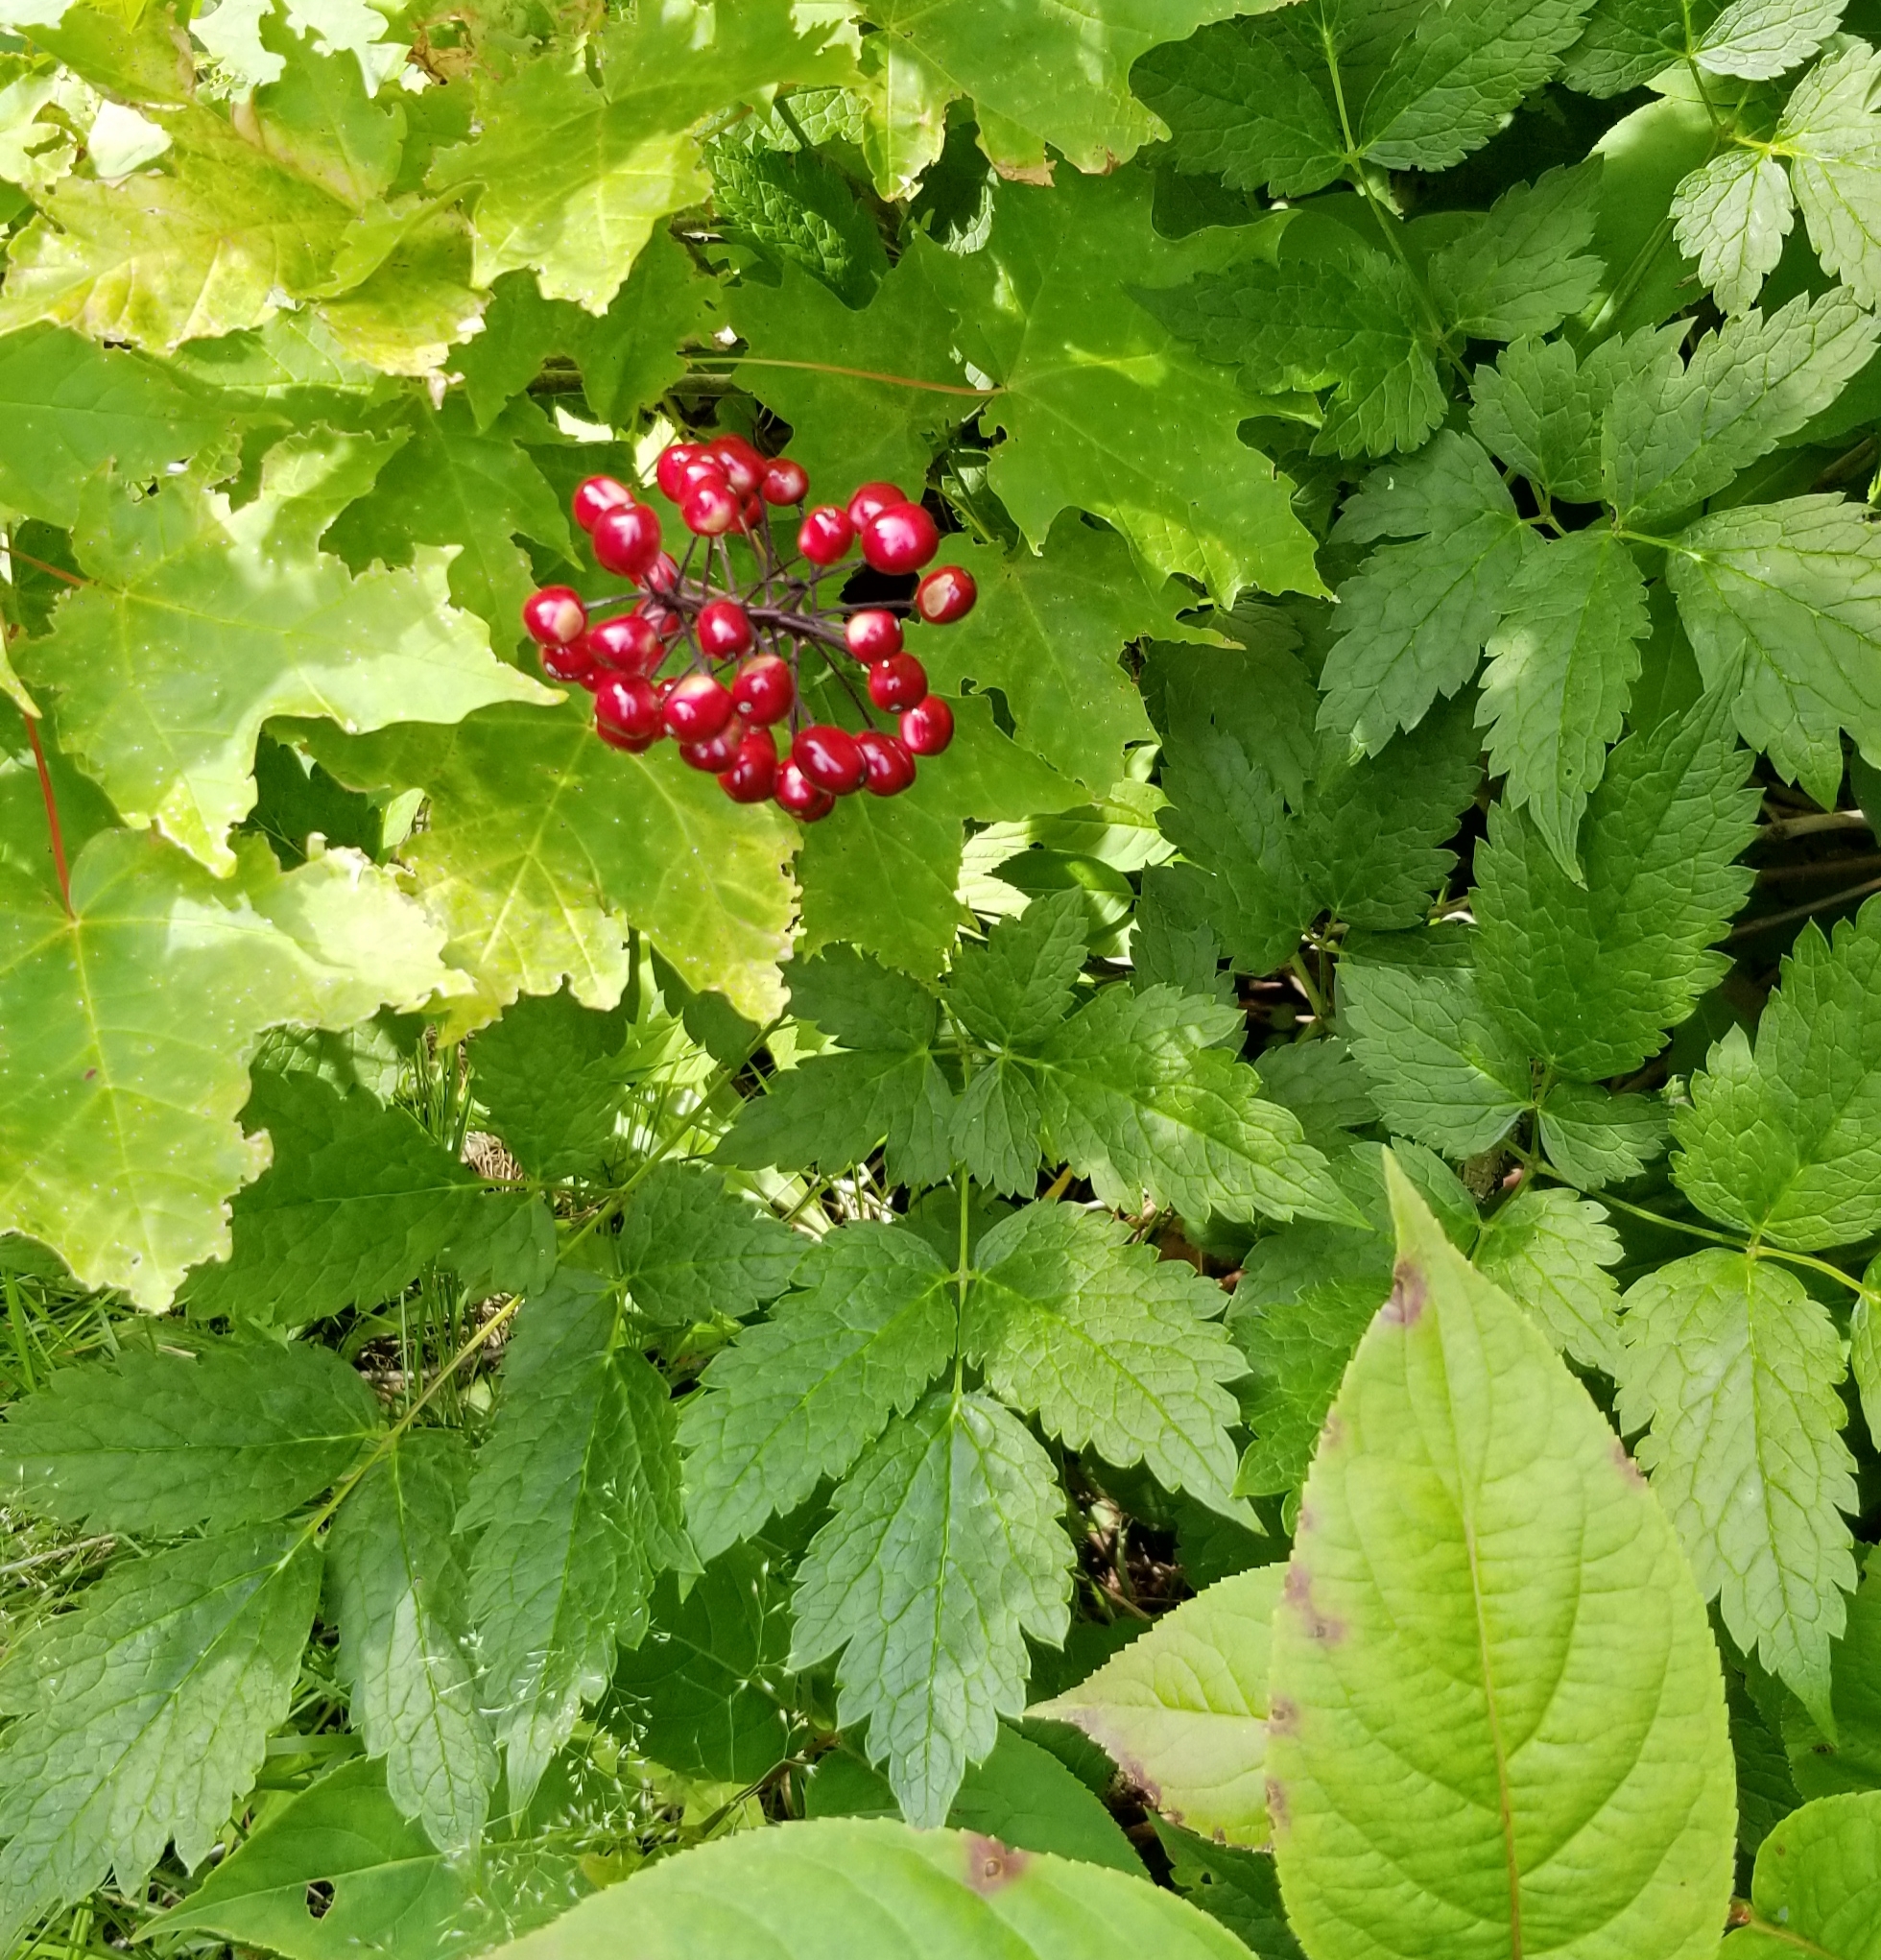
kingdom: Plantae
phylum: Tracheophyta
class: Magnoliopsida
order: Ranunculales
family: Ranunculaceae
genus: Actaea
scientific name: Actaea rubra
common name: Red baneberry
